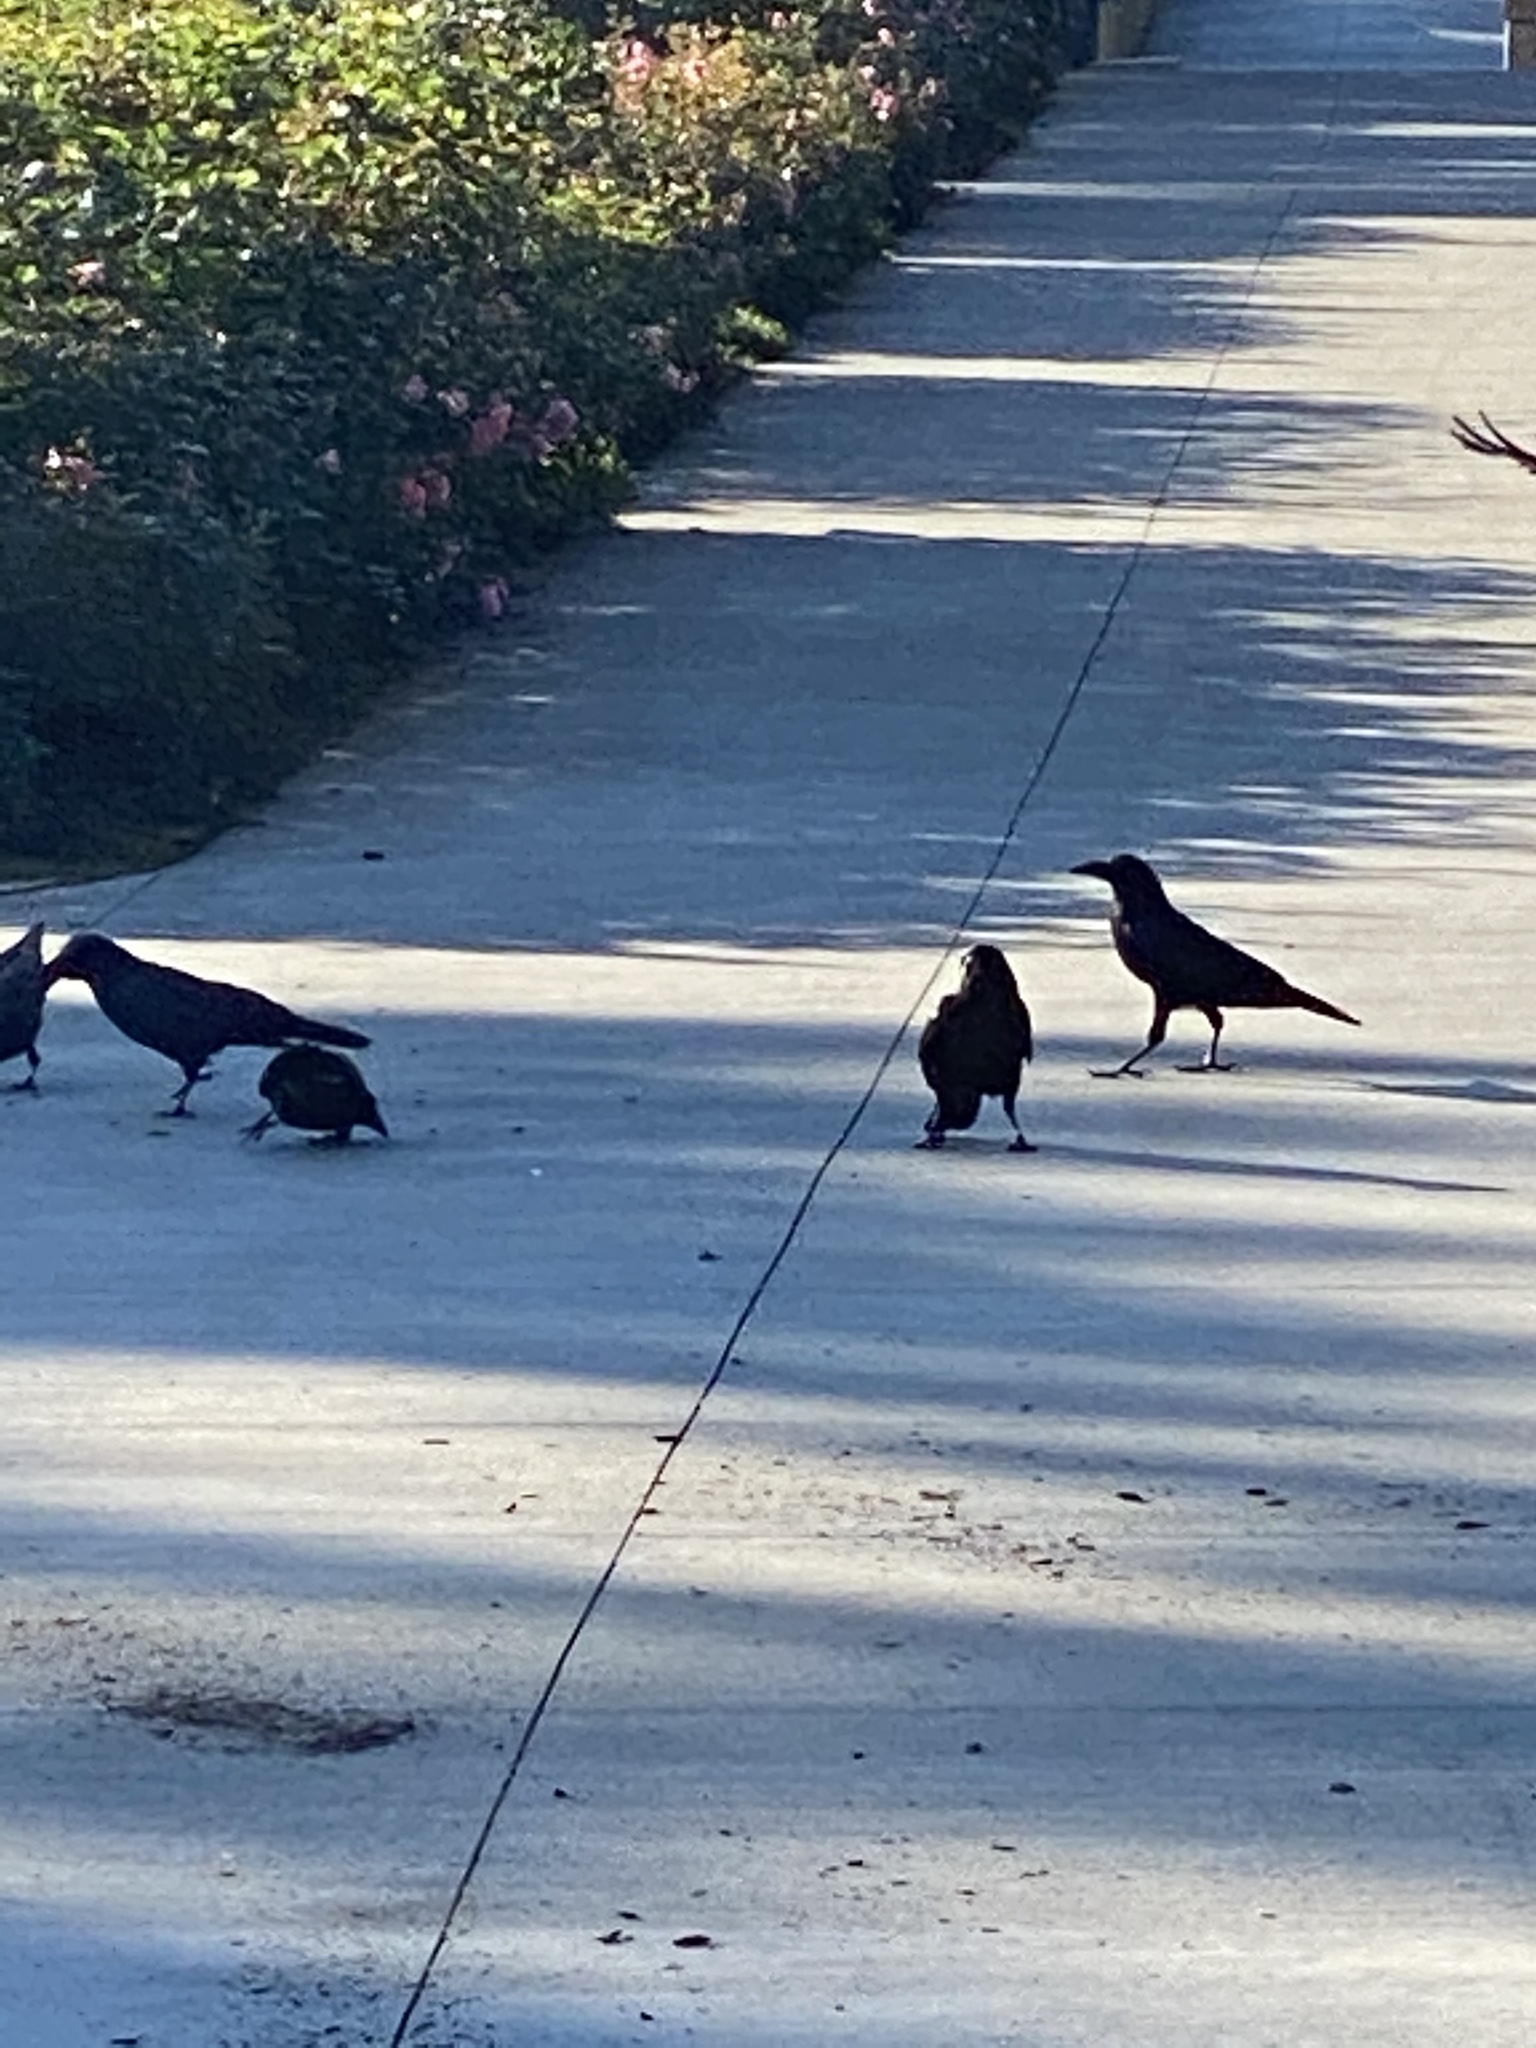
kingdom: Animalia
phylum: Chordata
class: Aves
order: Passeriformes
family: Corvidae
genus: Corvus
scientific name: Corvus brachyrhynchos
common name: American crow
